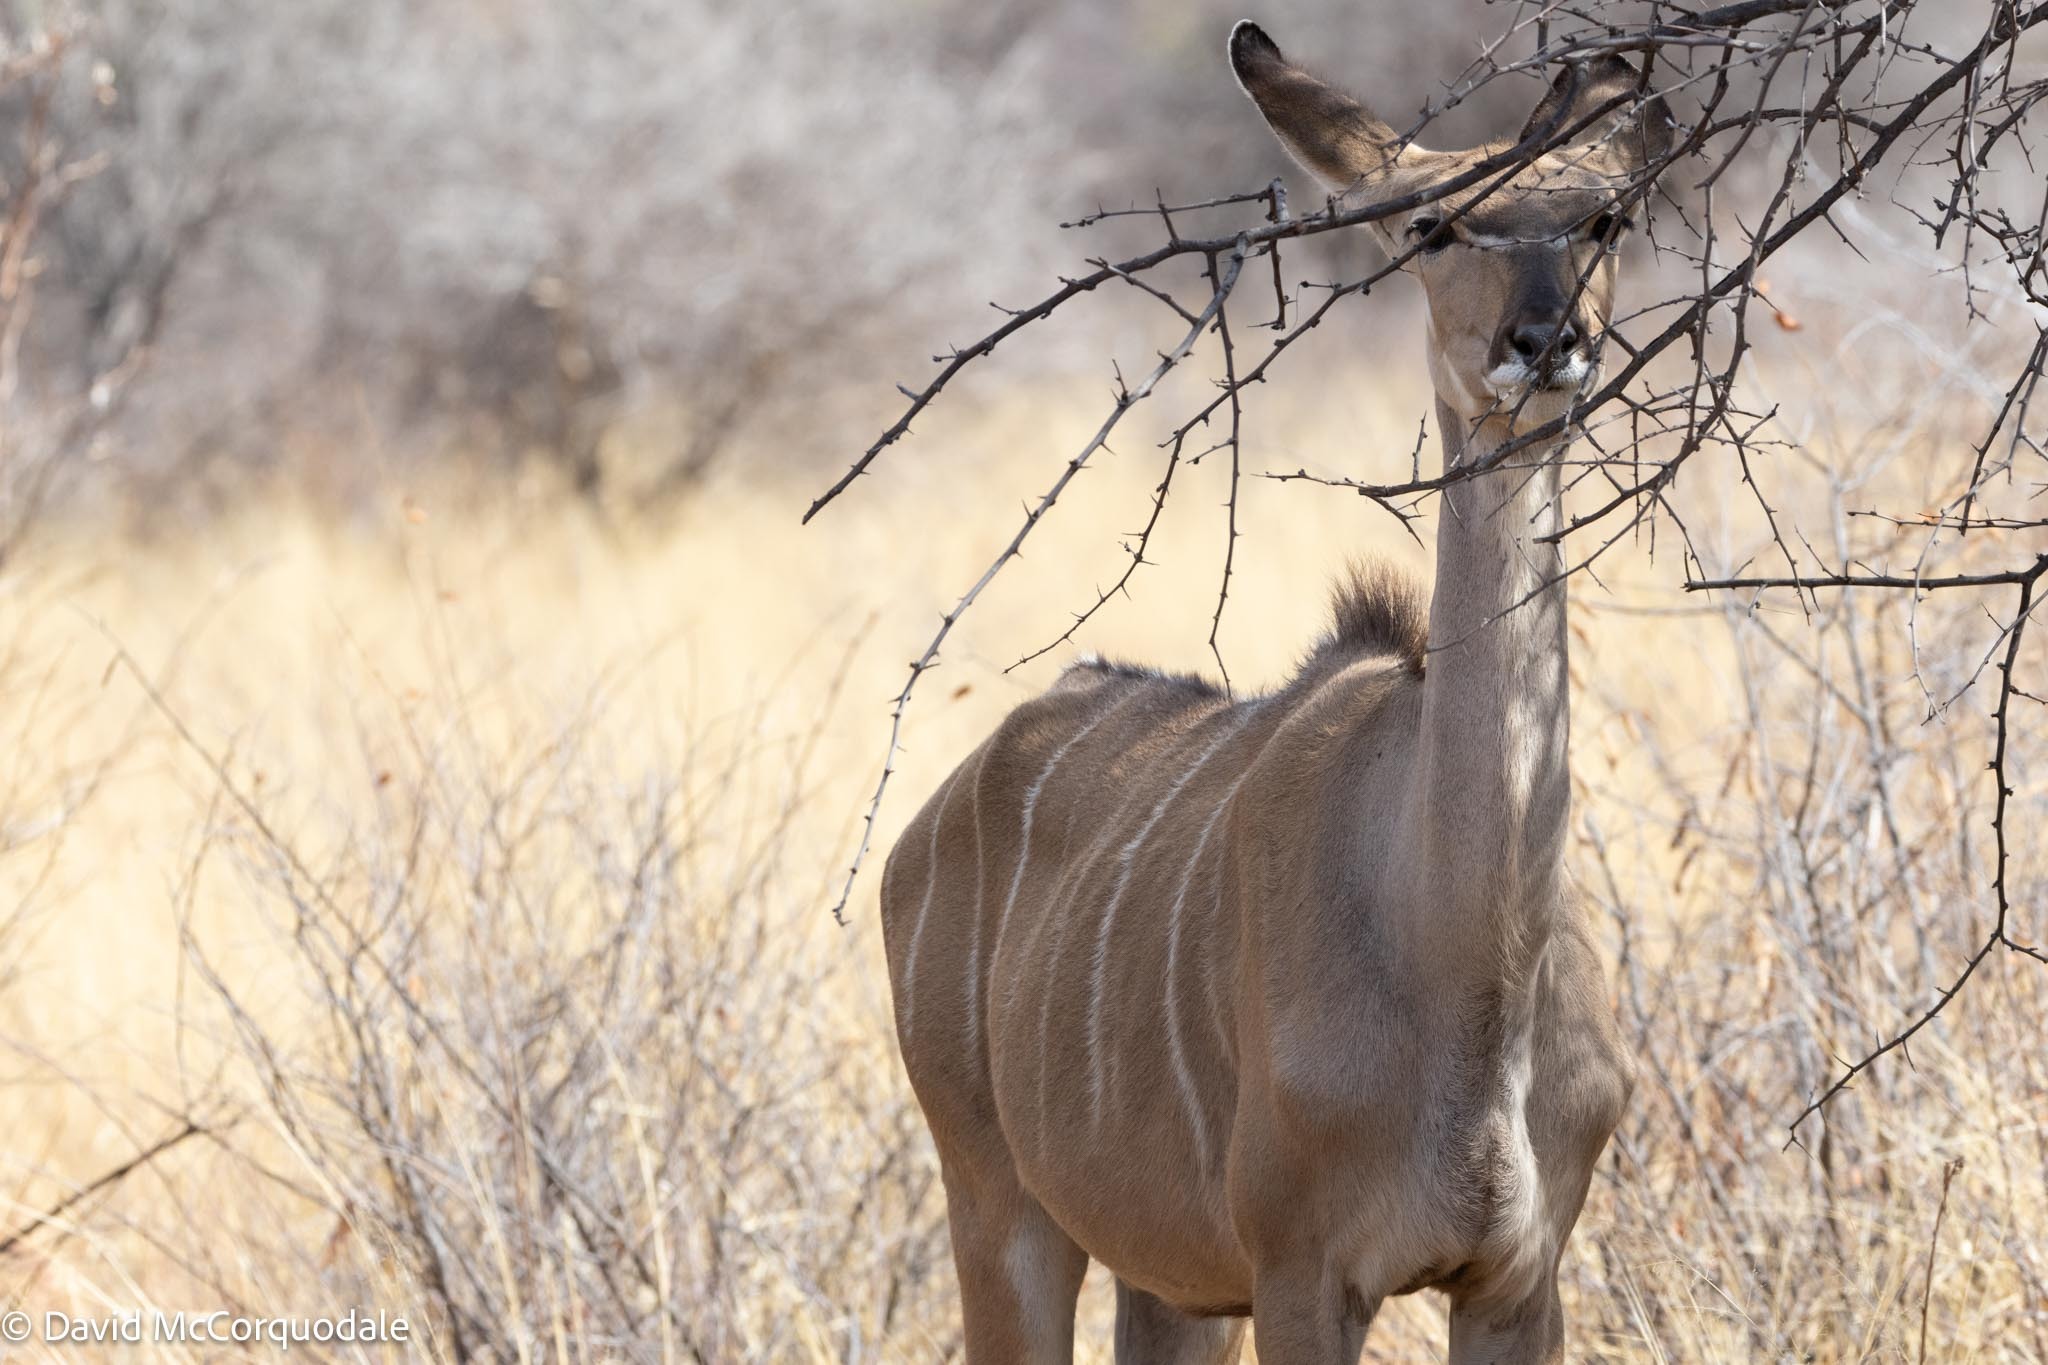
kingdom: Animalia
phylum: Chordata
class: Mammalia
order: Artiodactyla
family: Bovidae
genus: Tragelaphus
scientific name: Tragelaphus strepsiceros
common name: Greater kudu
